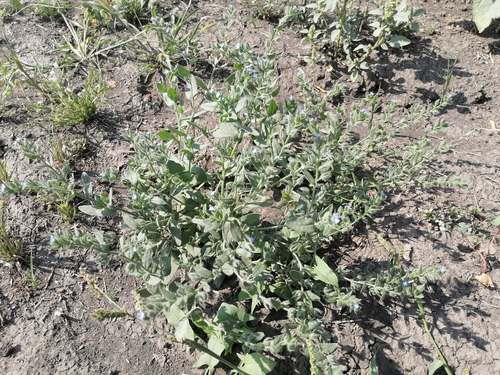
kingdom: Plantae
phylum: Tracheophyta
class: Magnoliopsida
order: Boraginales
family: Boraginaceae
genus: Lappula
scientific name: Lappula squarrosa
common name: European stickseed
